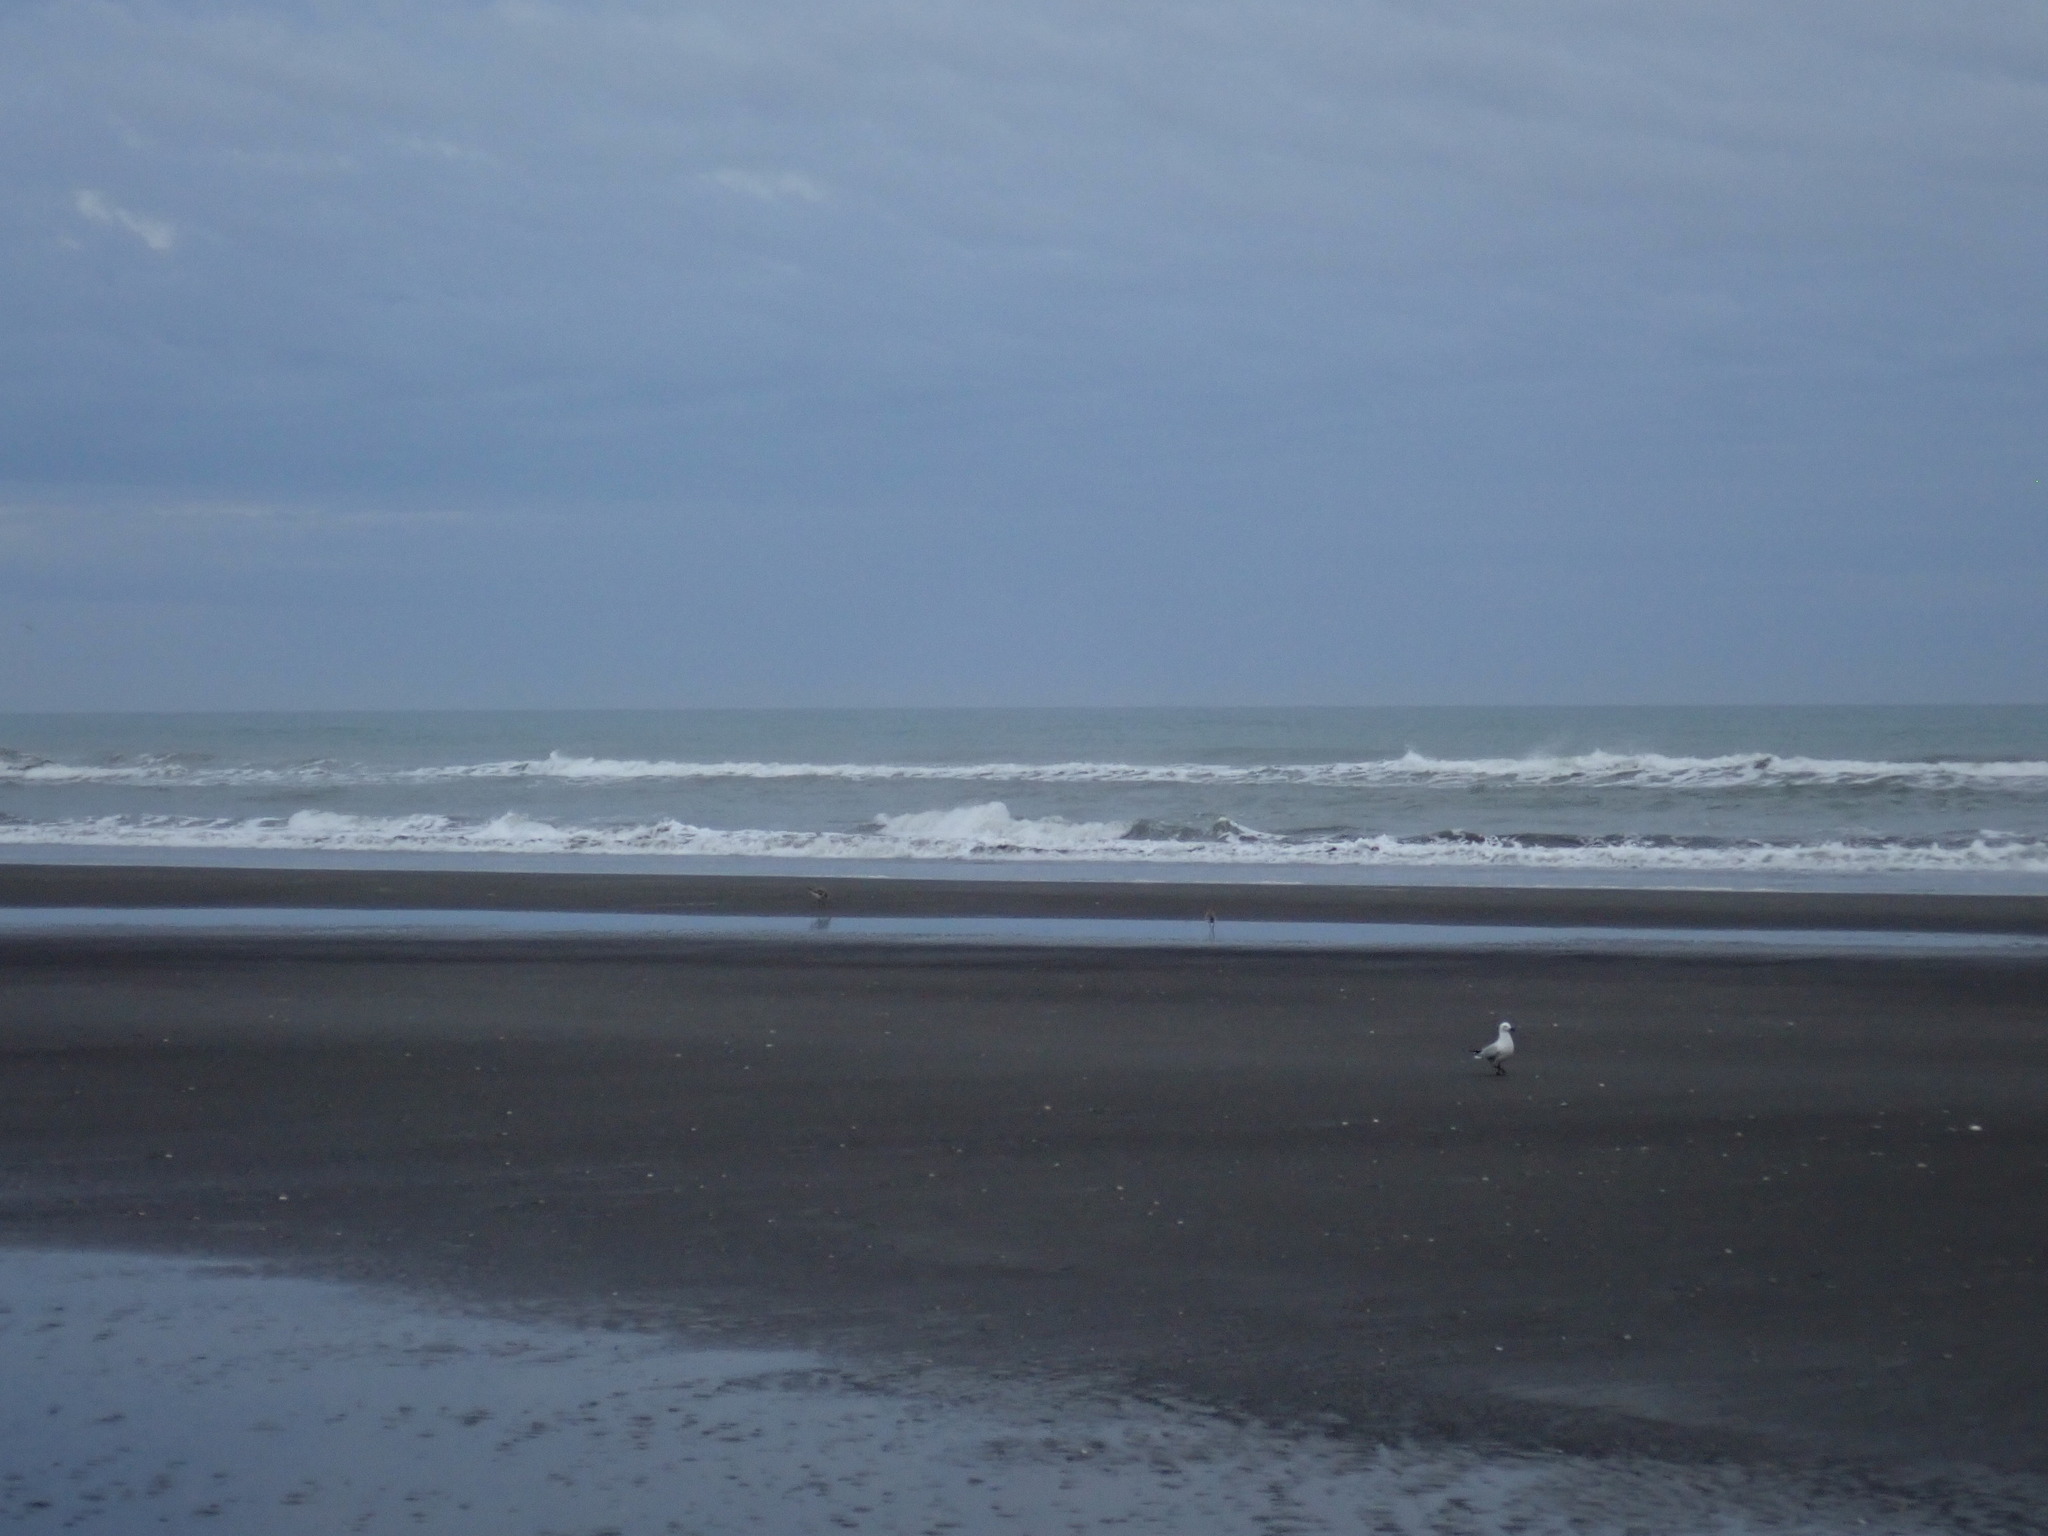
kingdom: Animalia
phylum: Chordata
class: Aves
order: Charadriiformes
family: Scolopacidae
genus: Limosa
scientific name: Limosa lapponica
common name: Bar-tailed godwit
